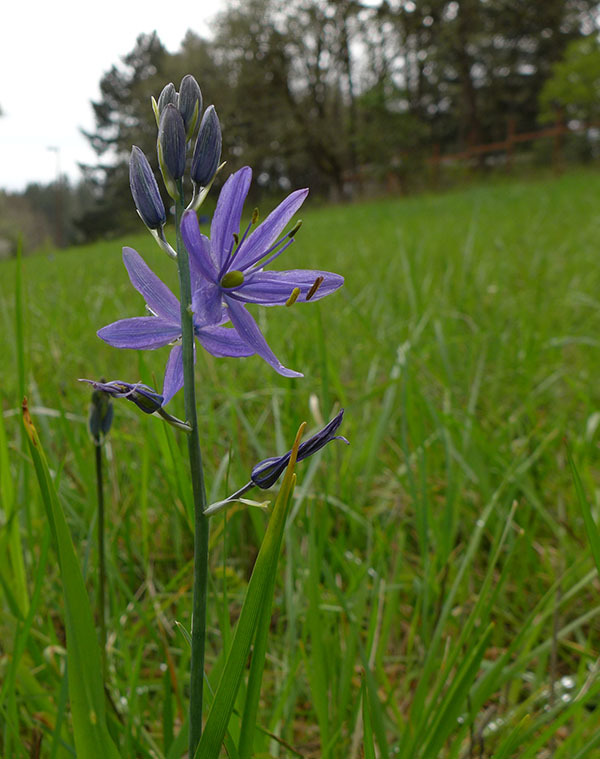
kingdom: Plantae
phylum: Tracheophyta
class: Liliopsida
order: Asparagales
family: Asparagaceae
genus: Camassia
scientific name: Camassia leichtlinii
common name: Leichtlin's camas
